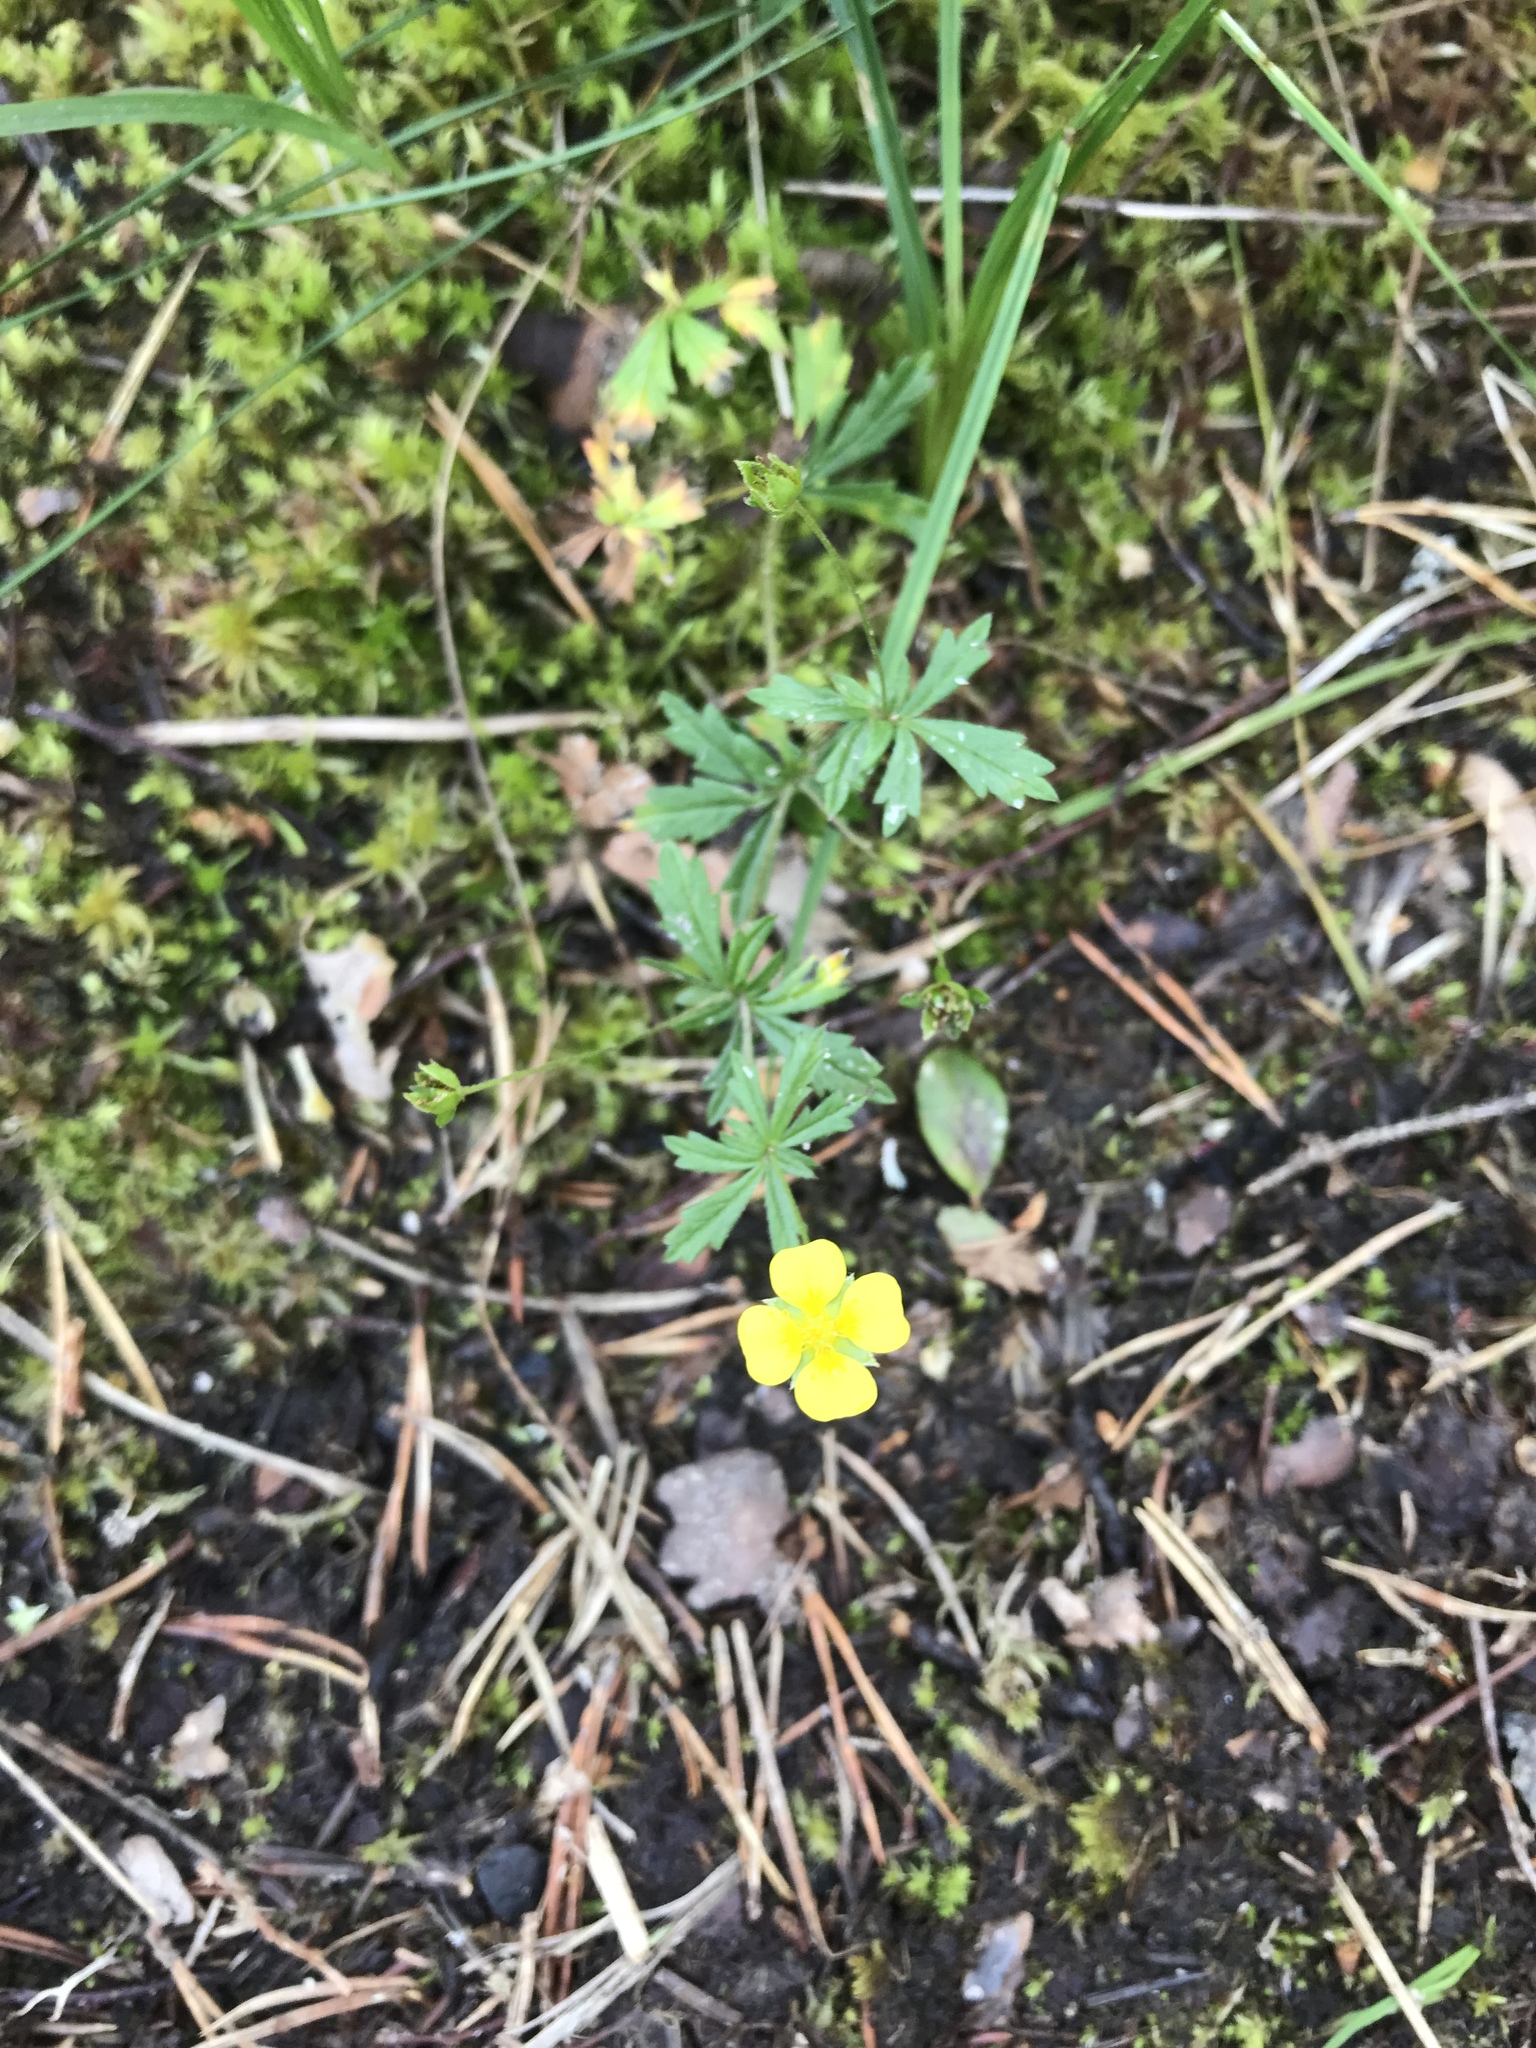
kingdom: Plantae
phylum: Tracheophyta
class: Magnoliopsida
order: Rosales
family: Rosaceae
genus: Potentilla
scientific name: Potentilla erecta
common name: Tormentil
